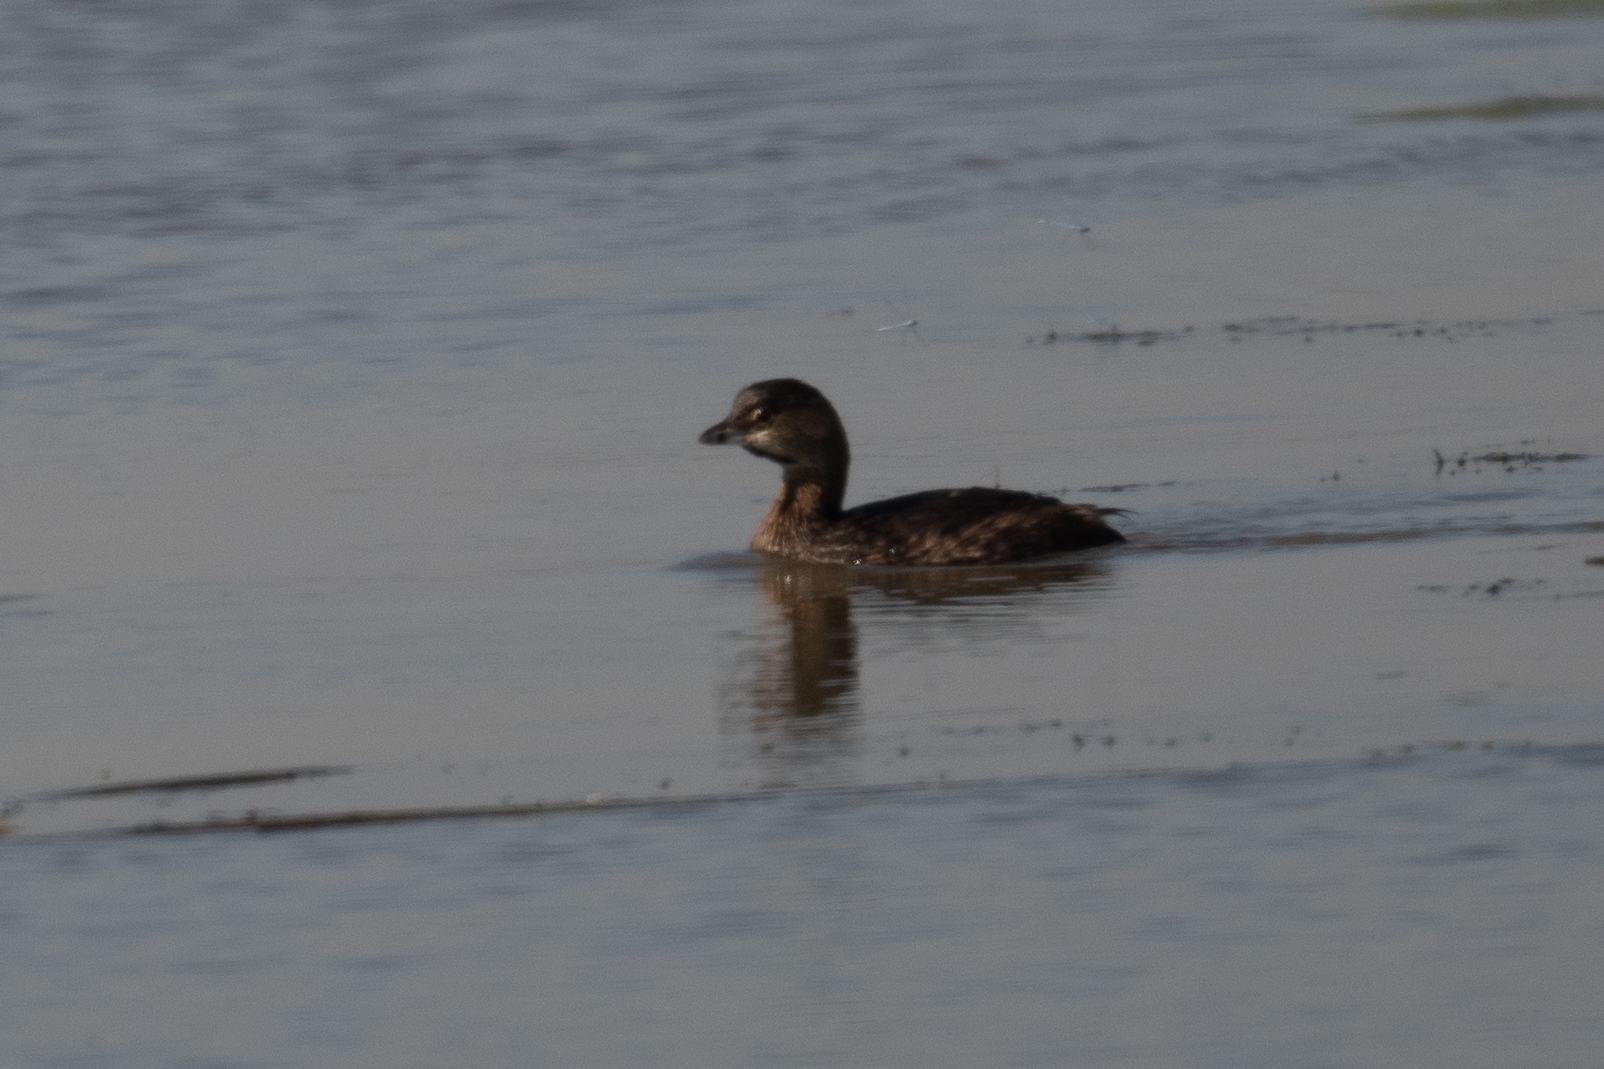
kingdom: Animalia
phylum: Chordata
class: Aves
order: Podicipediformes
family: Podicipedidae
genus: Podilymbus
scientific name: Podilymbus podiceps
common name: Pied-billed grebe
